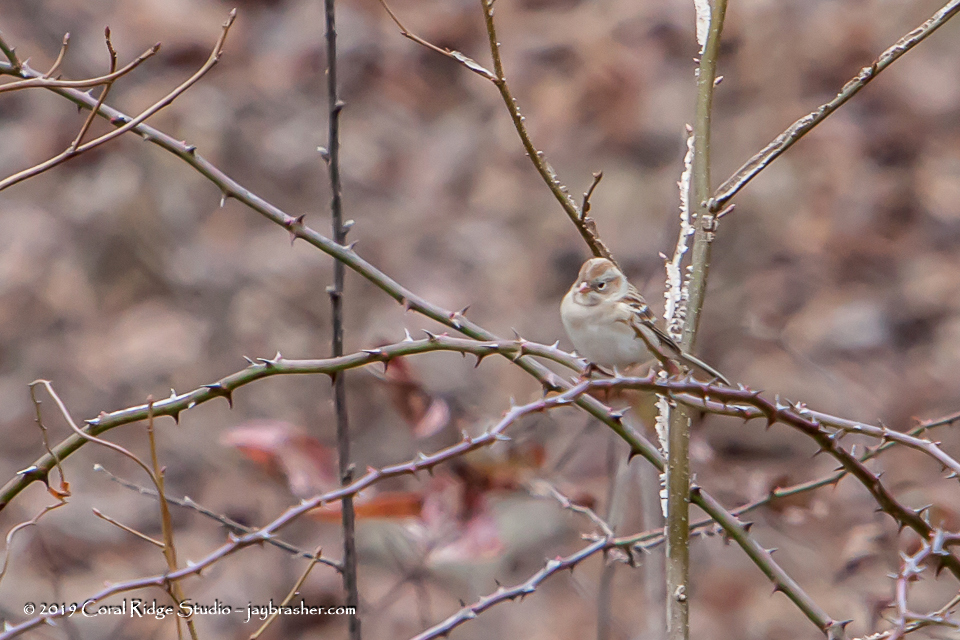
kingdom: Animalia
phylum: Chordata
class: Aves
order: Passeriformes
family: Passerellidae
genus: Spizella
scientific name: Spizella pusilla
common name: Field sparrow
